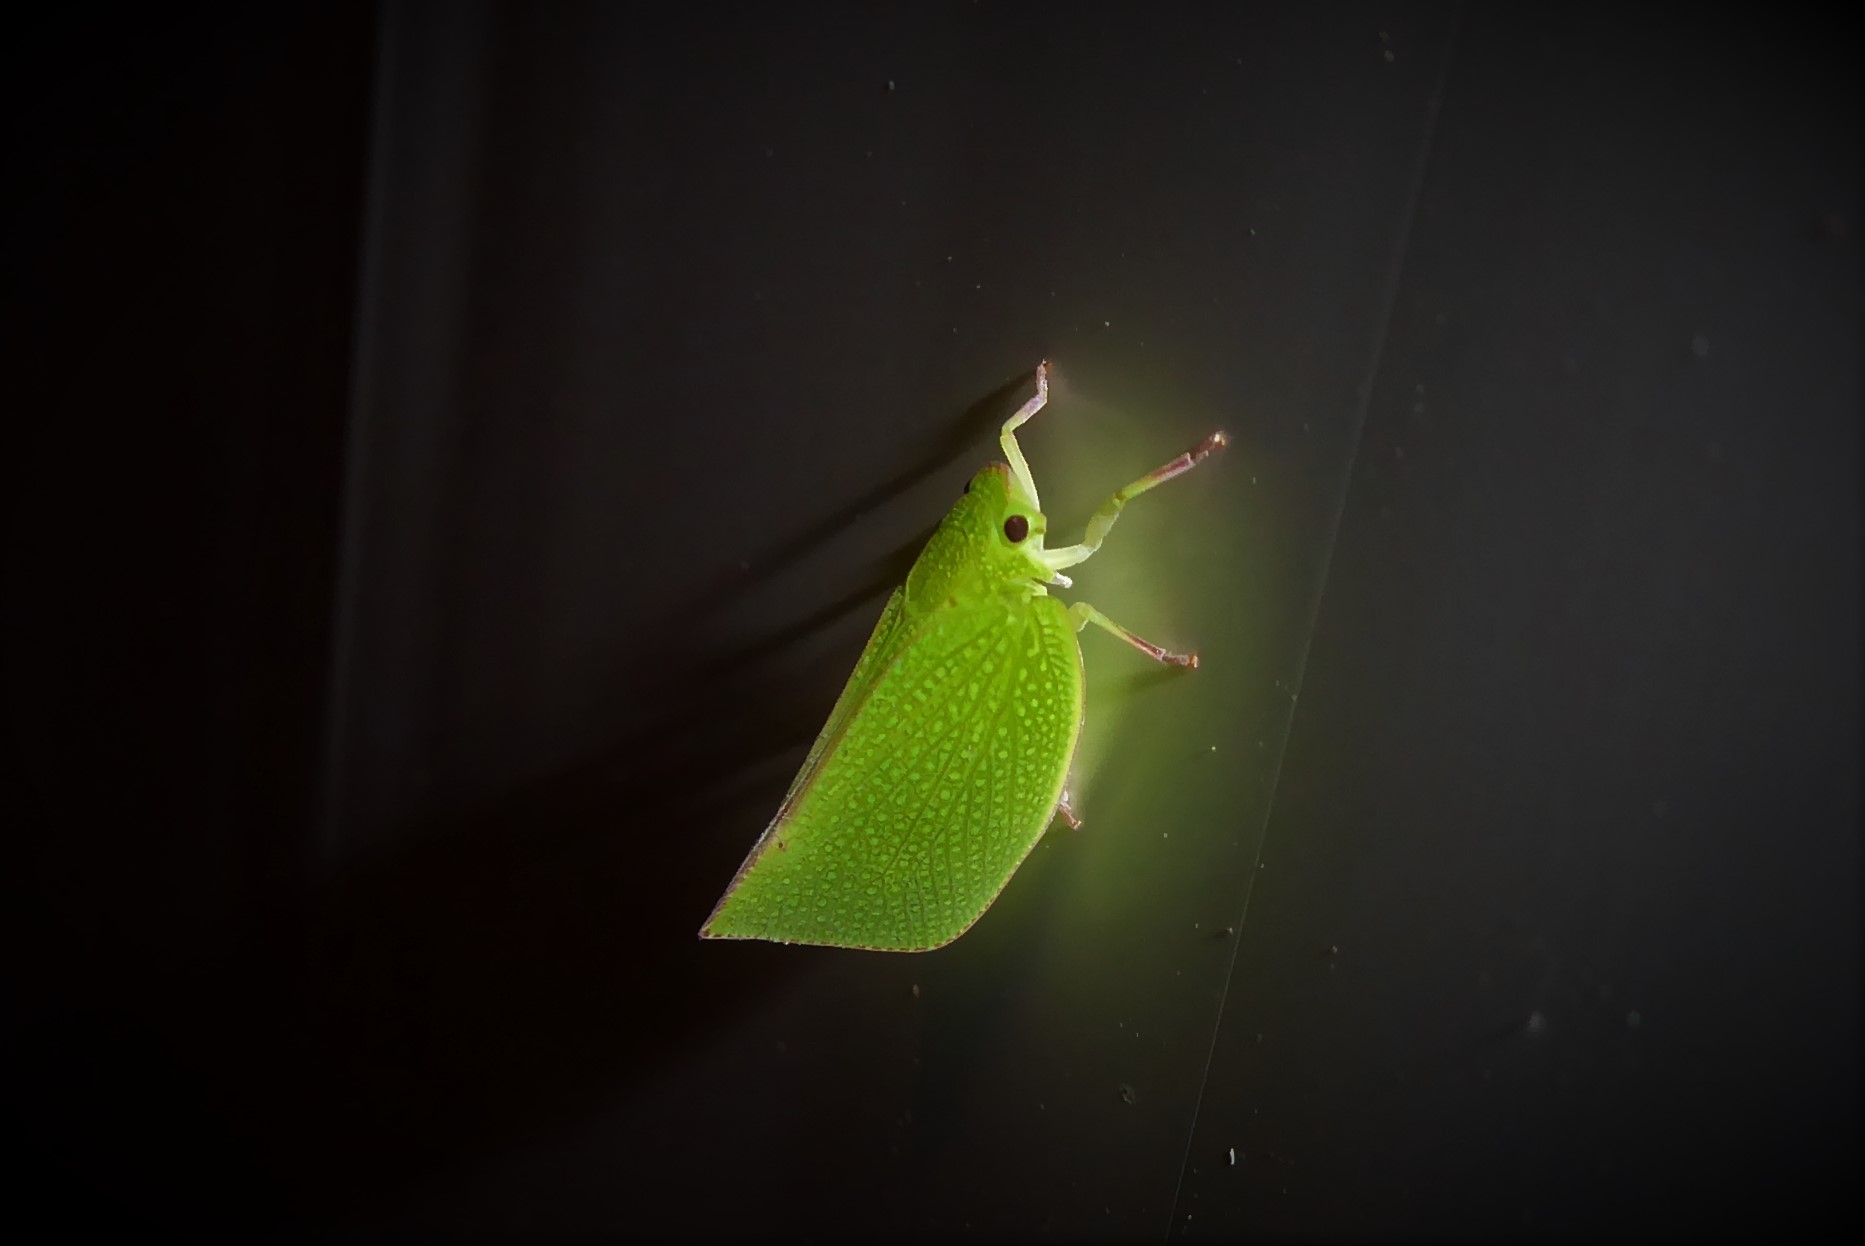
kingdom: Animalia
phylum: Arthropoda
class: Insecta
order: Hemiptera
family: Flatidae
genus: Siphanta
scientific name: Siphanta acuta
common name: Torpedo bug
